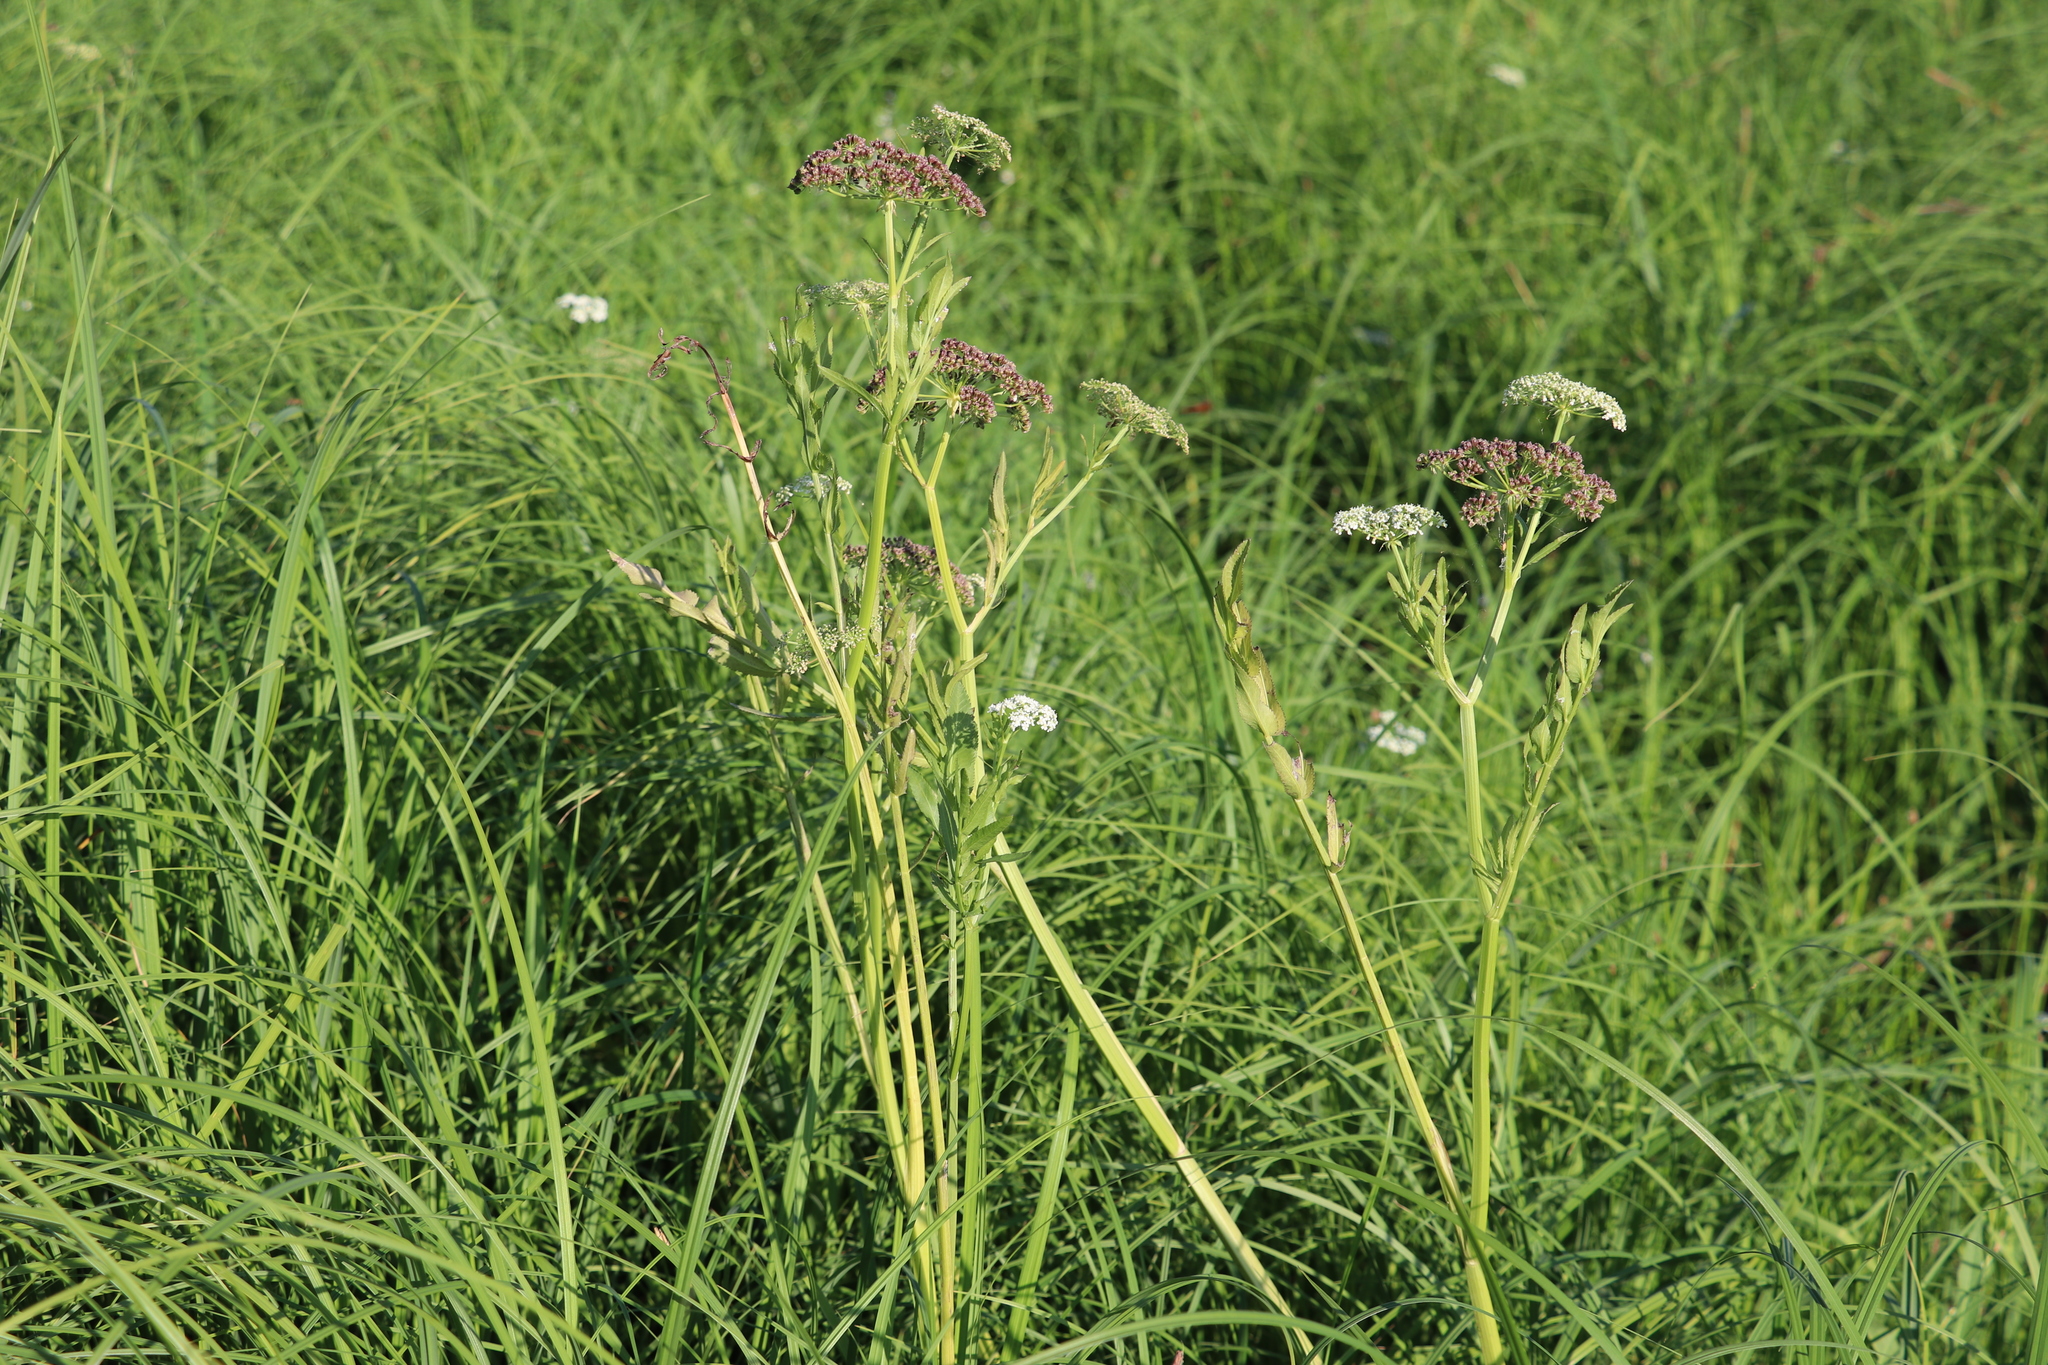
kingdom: Plantae
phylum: Tracheophyta
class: Magnoliopsida
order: Apiales
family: Apiaceae
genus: Sium
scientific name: Sium latifolium
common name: Greater water-parsnip
